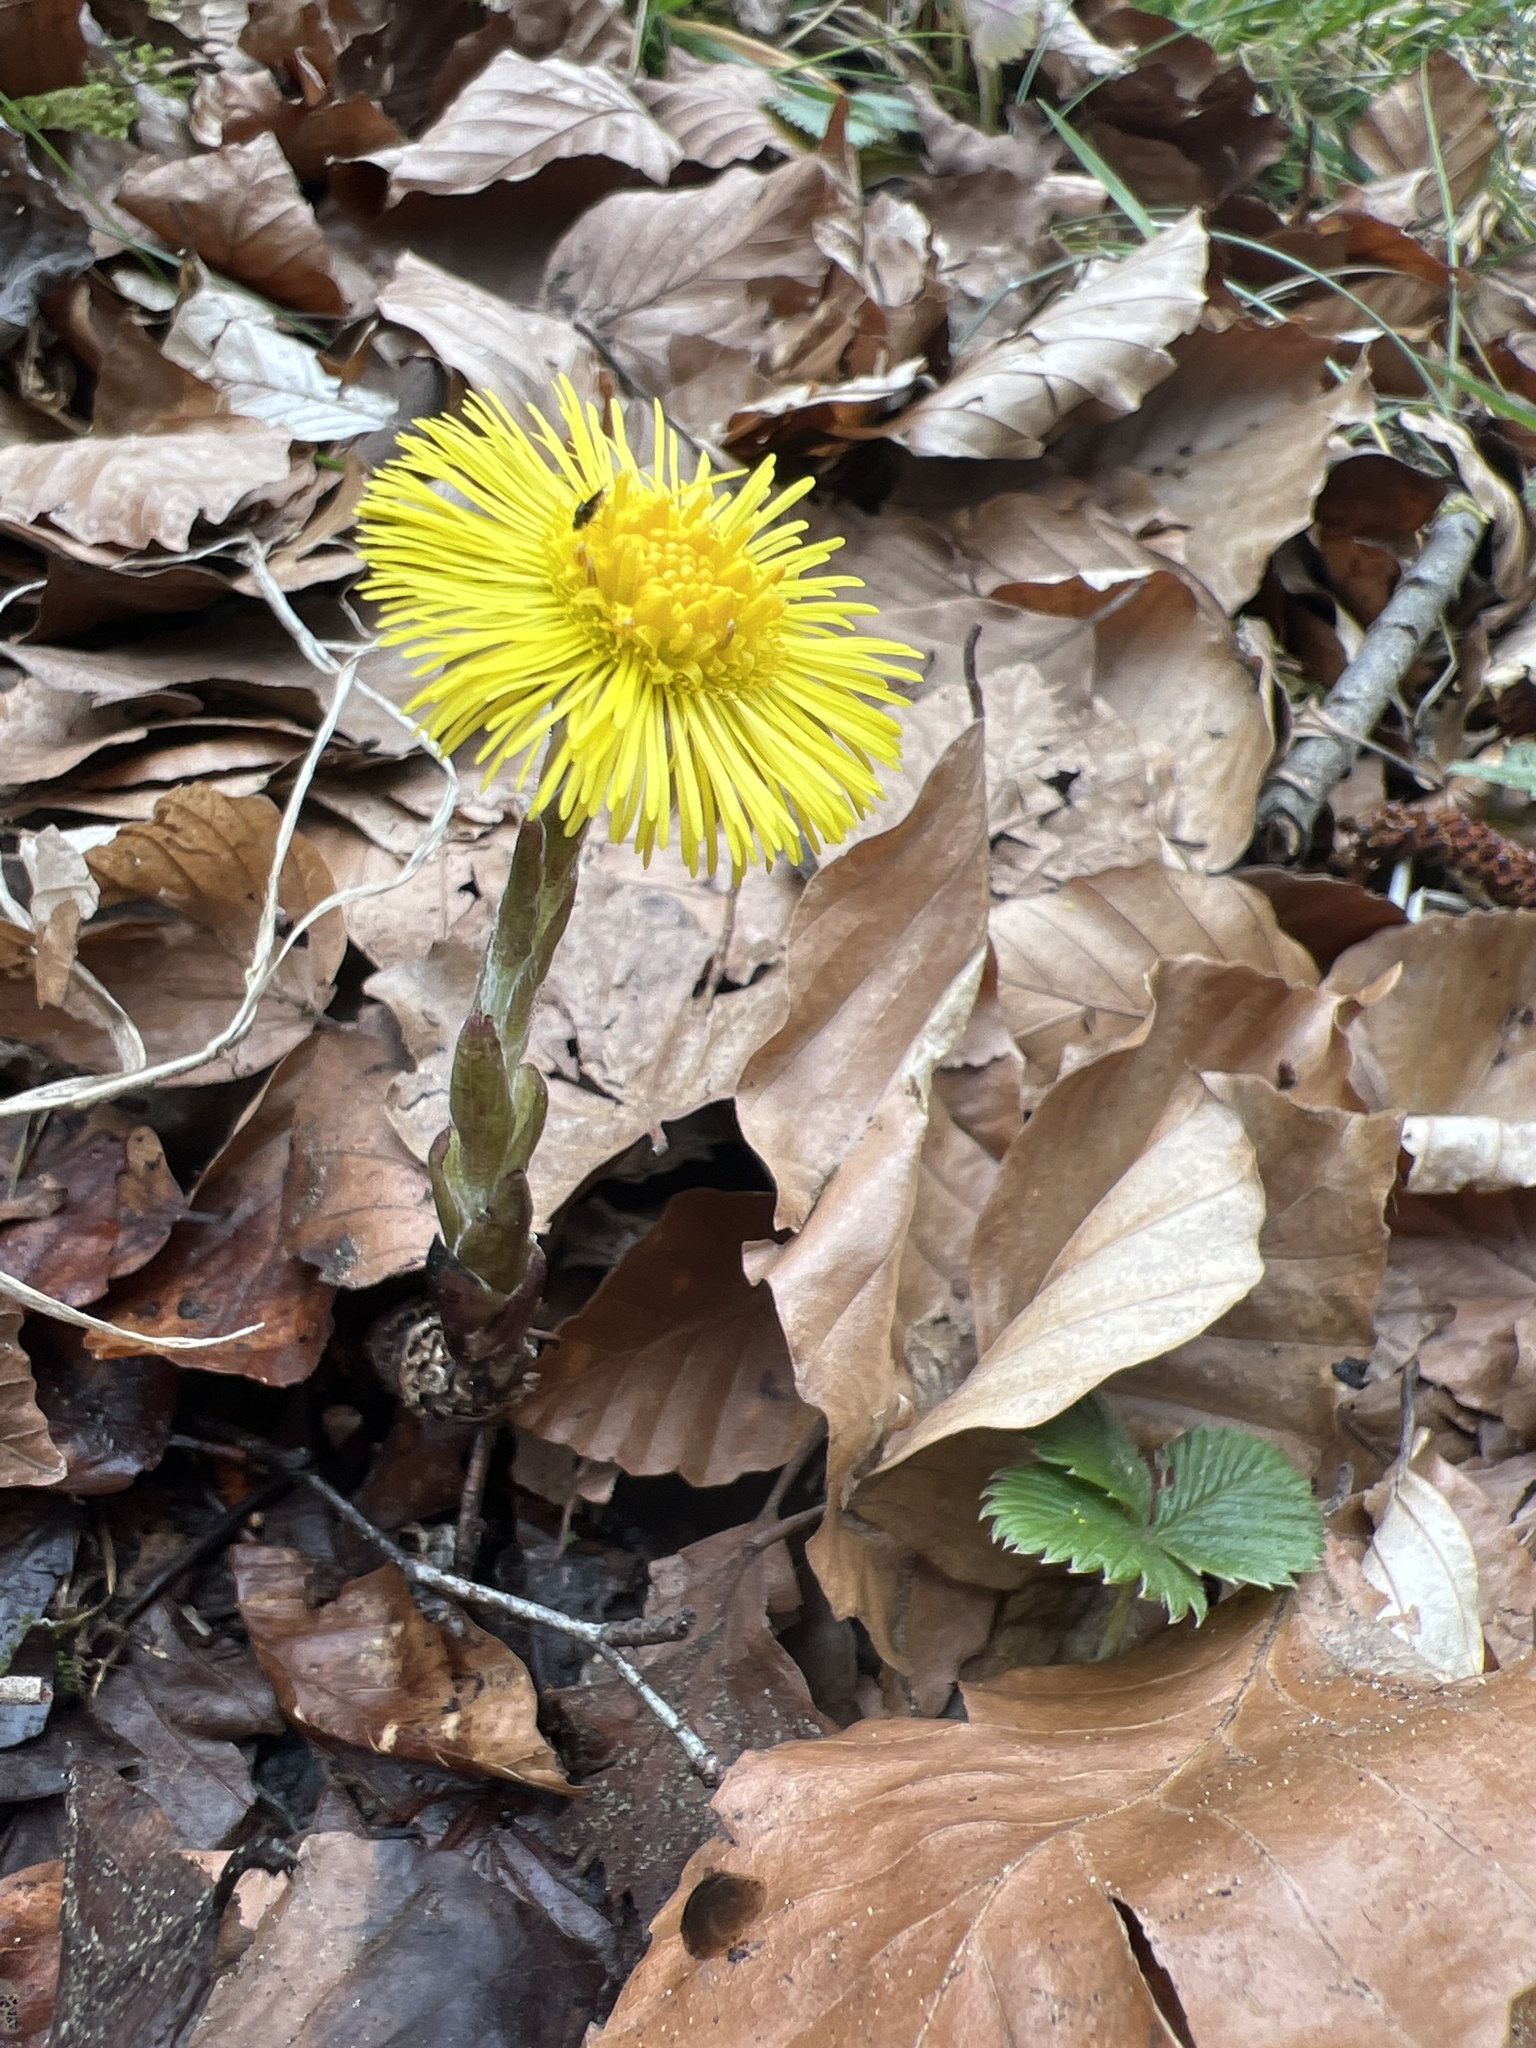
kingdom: Plantae
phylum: Tracheophyta
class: Magnoliopsida
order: Asterales
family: Asteraceae
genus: Tussilago
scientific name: Tussilago farfara
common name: Coltsfoot
